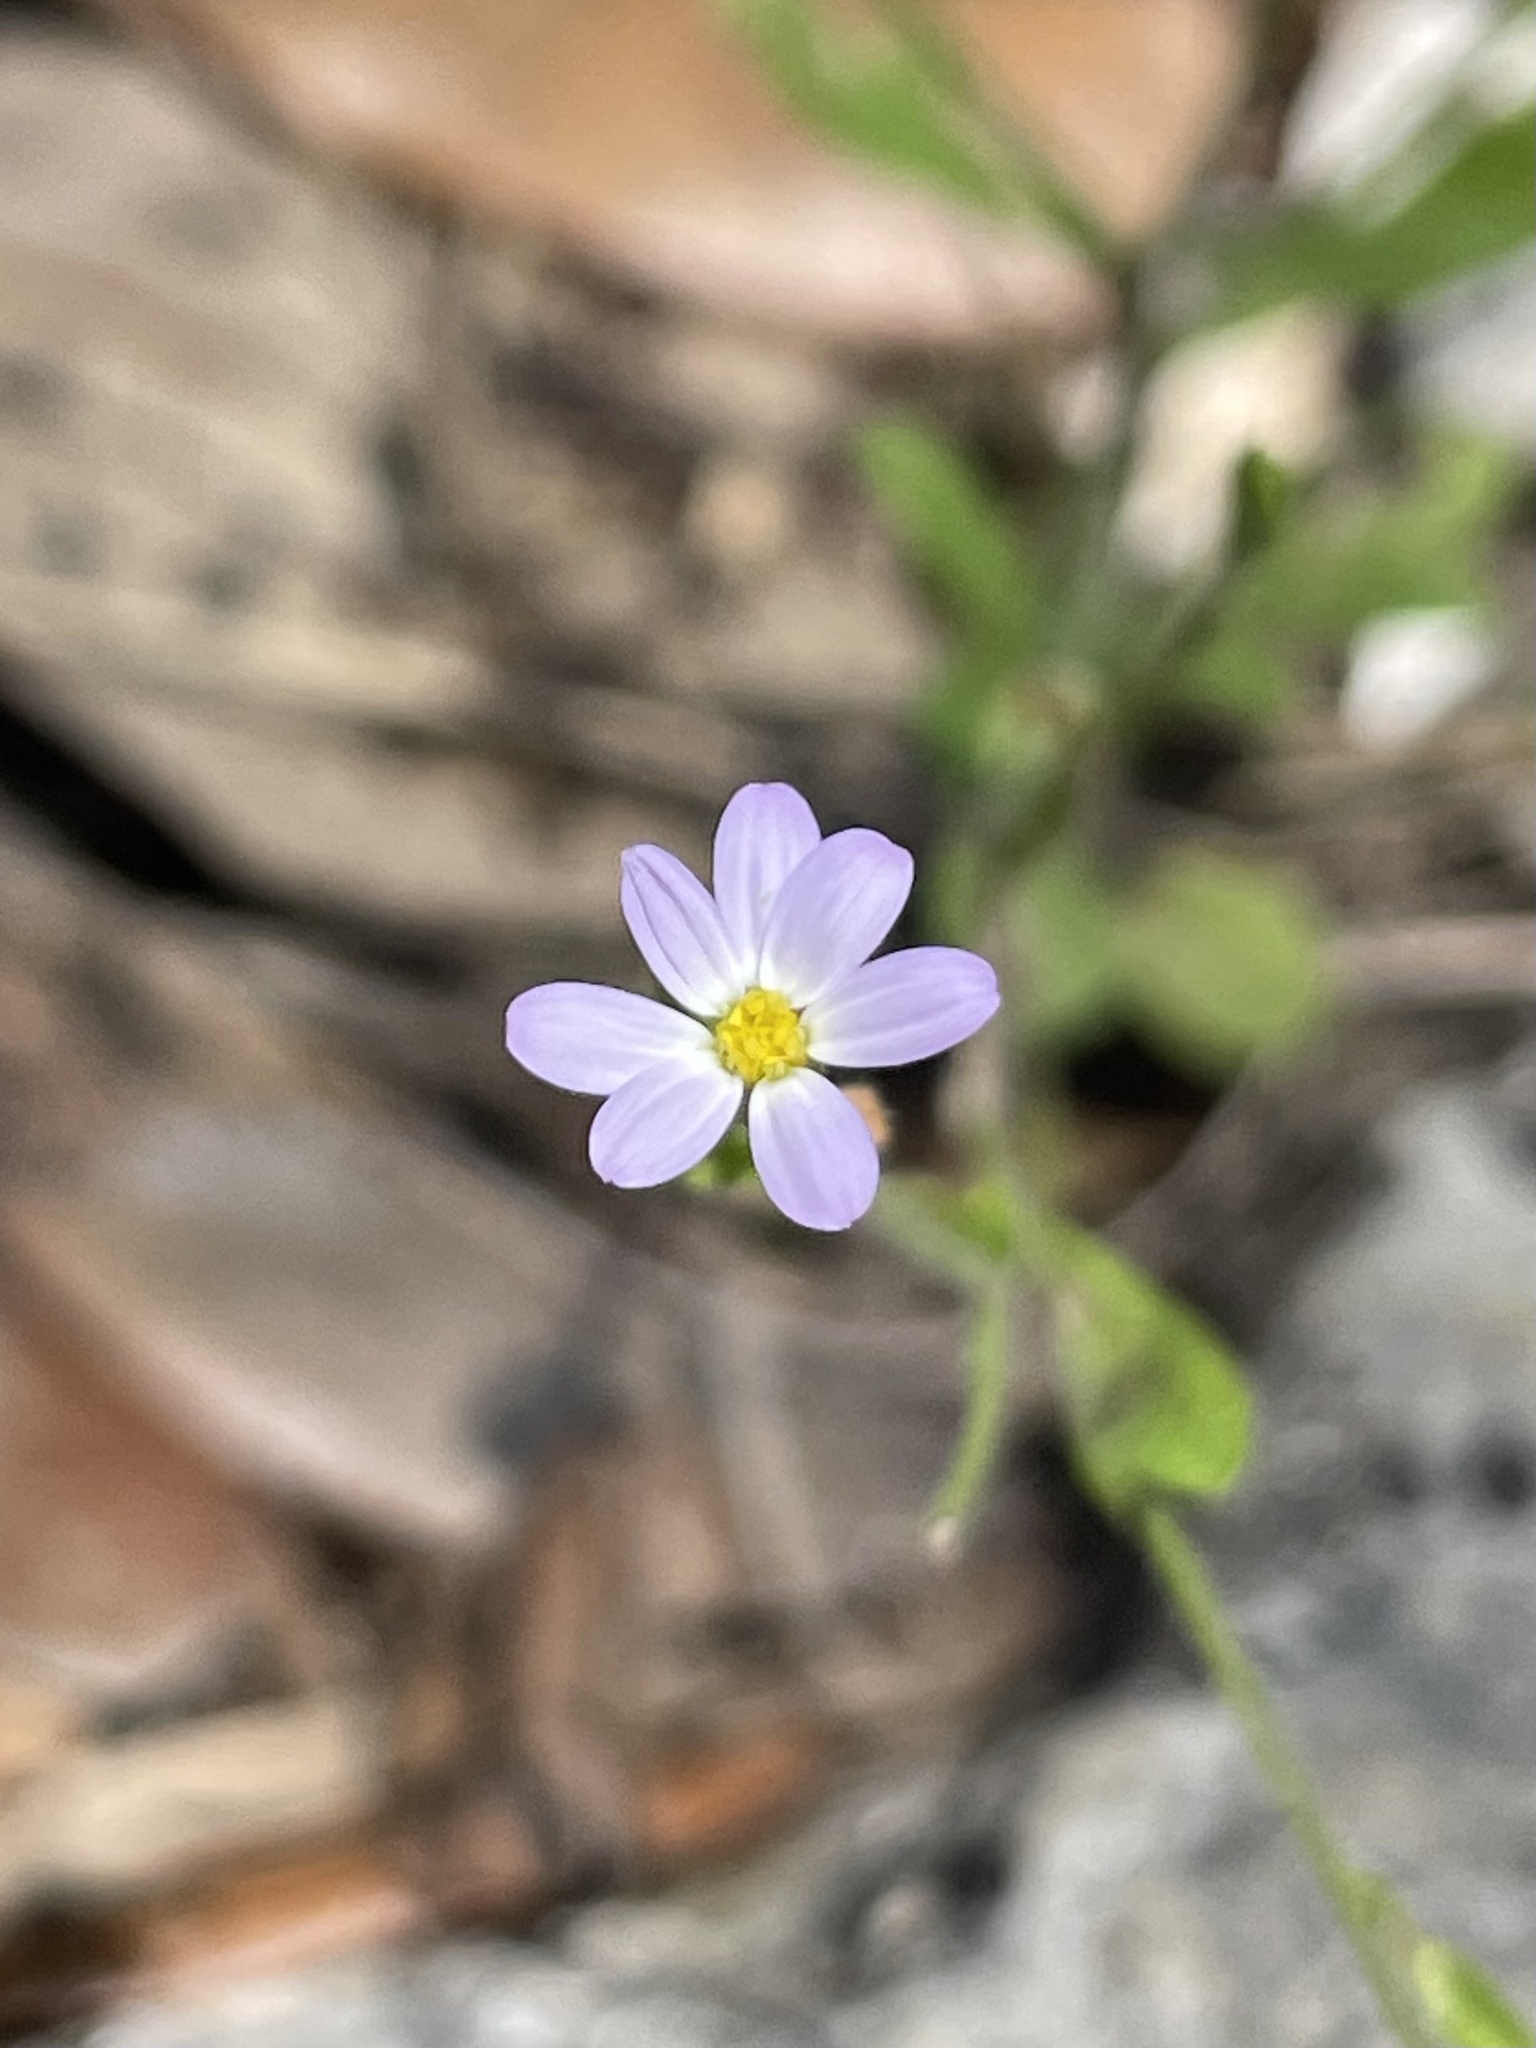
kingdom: Plantae
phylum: Tracheophyta
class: Magnoliopsida
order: Asterales
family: Asteraceae
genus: Chaetopappa
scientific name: Chaetopappa asteroides
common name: Tiny lazy daisy
